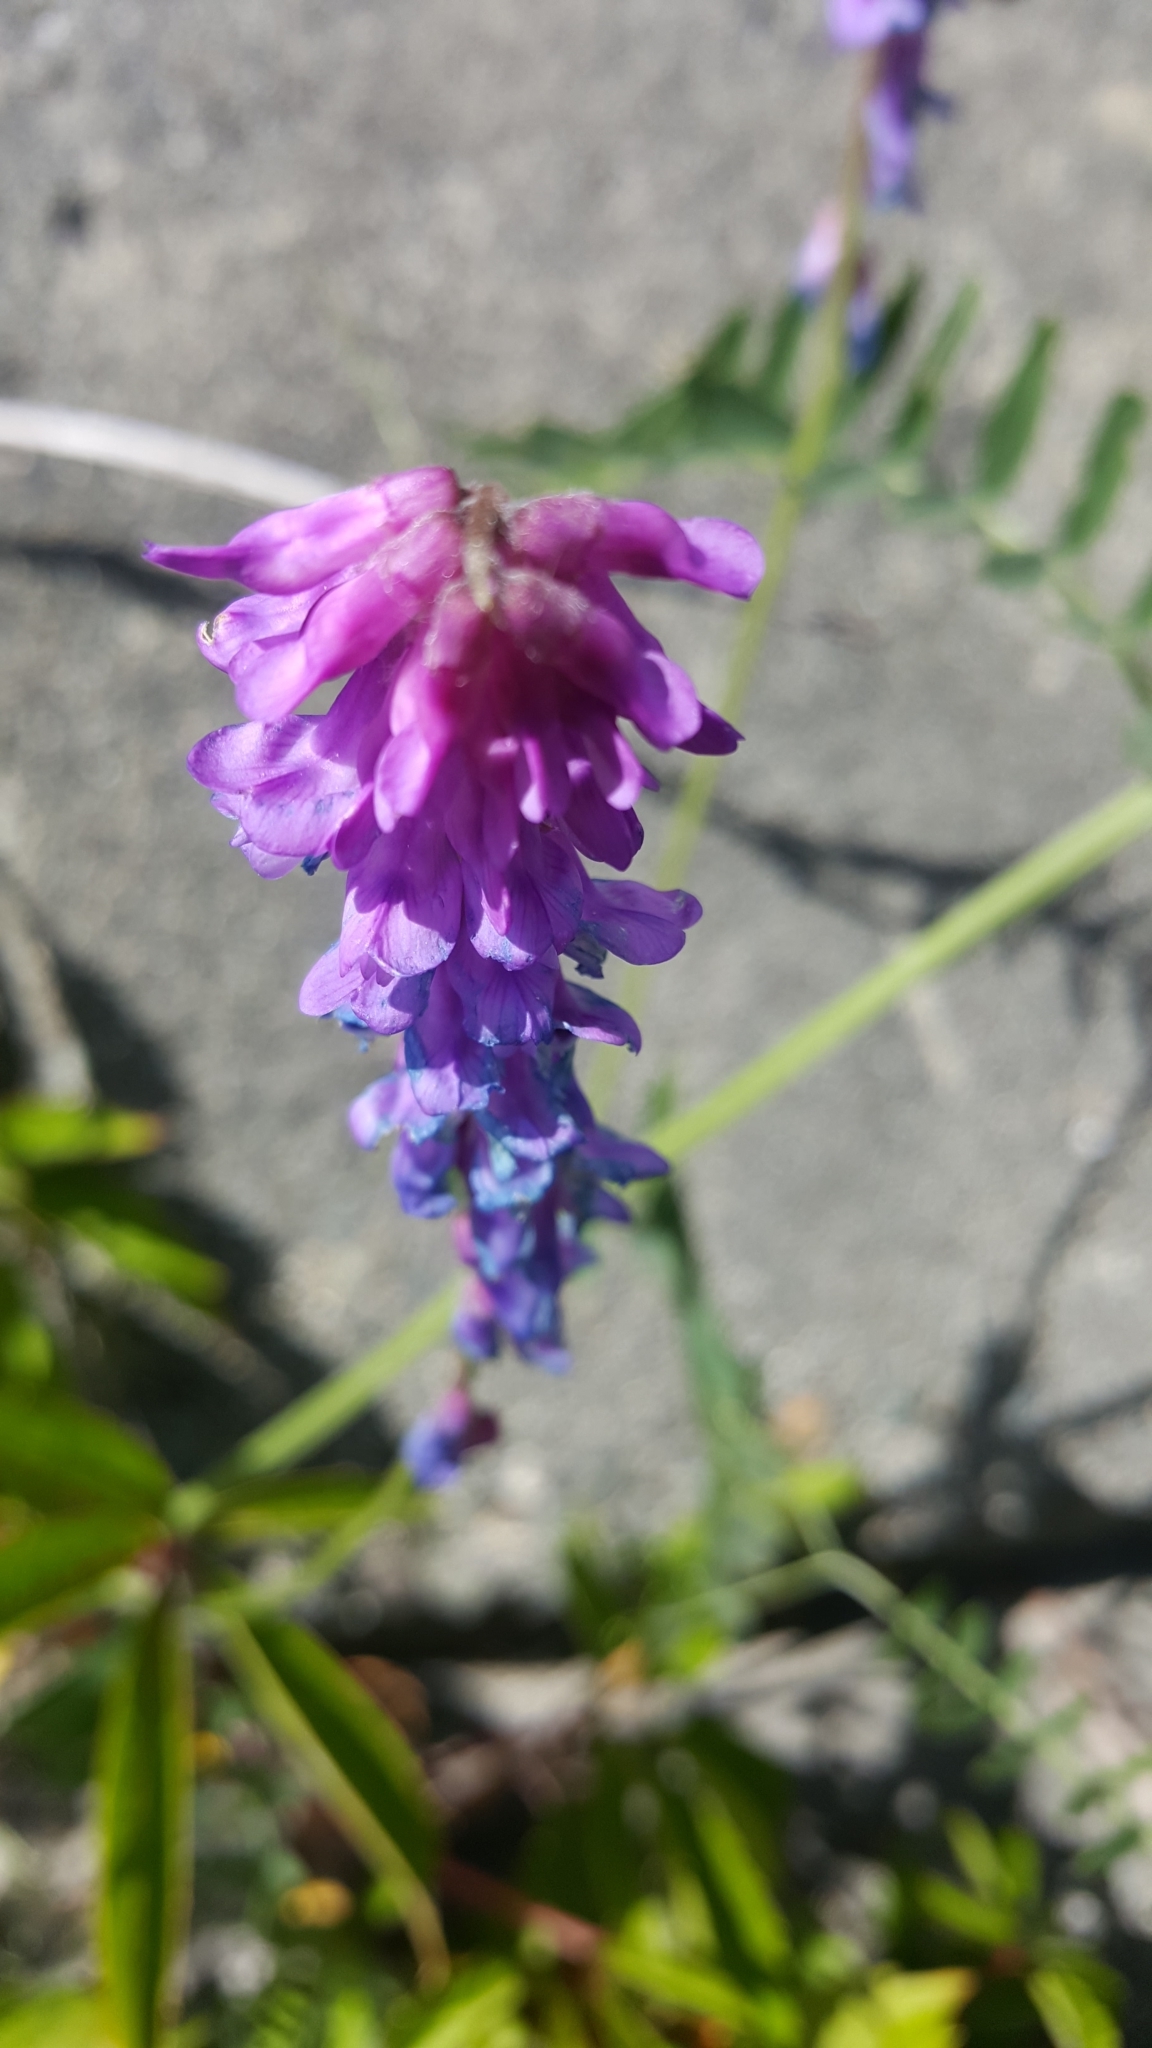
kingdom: Plantae
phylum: Tracheophyta
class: Magnoliopsida
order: Fabales
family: Fabaceae
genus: Vicia
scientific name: Vicia cracca
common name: Bird vetch
